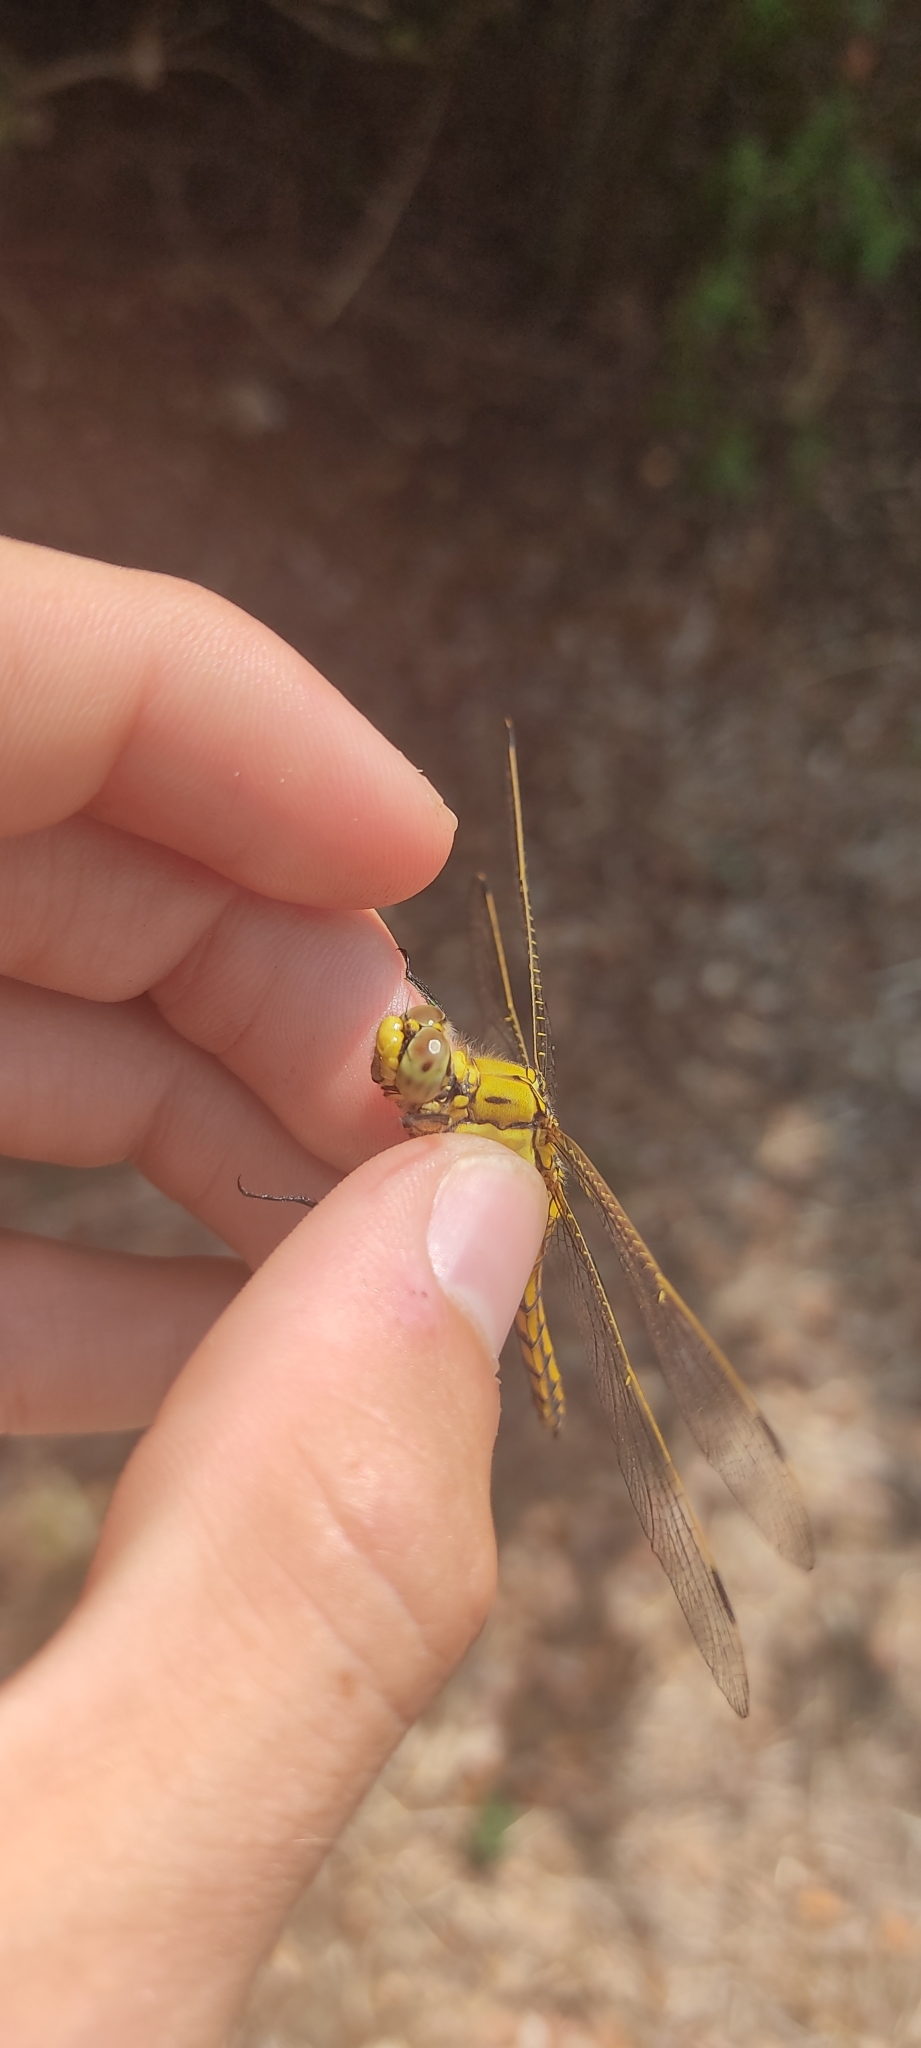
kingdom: Animalia
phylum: Arthropoda
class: Insecta
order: Odonata
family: Libellulidae
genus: Orthetrum
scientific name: Orthetrum cancellatum
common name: Black-tailed skimmer
